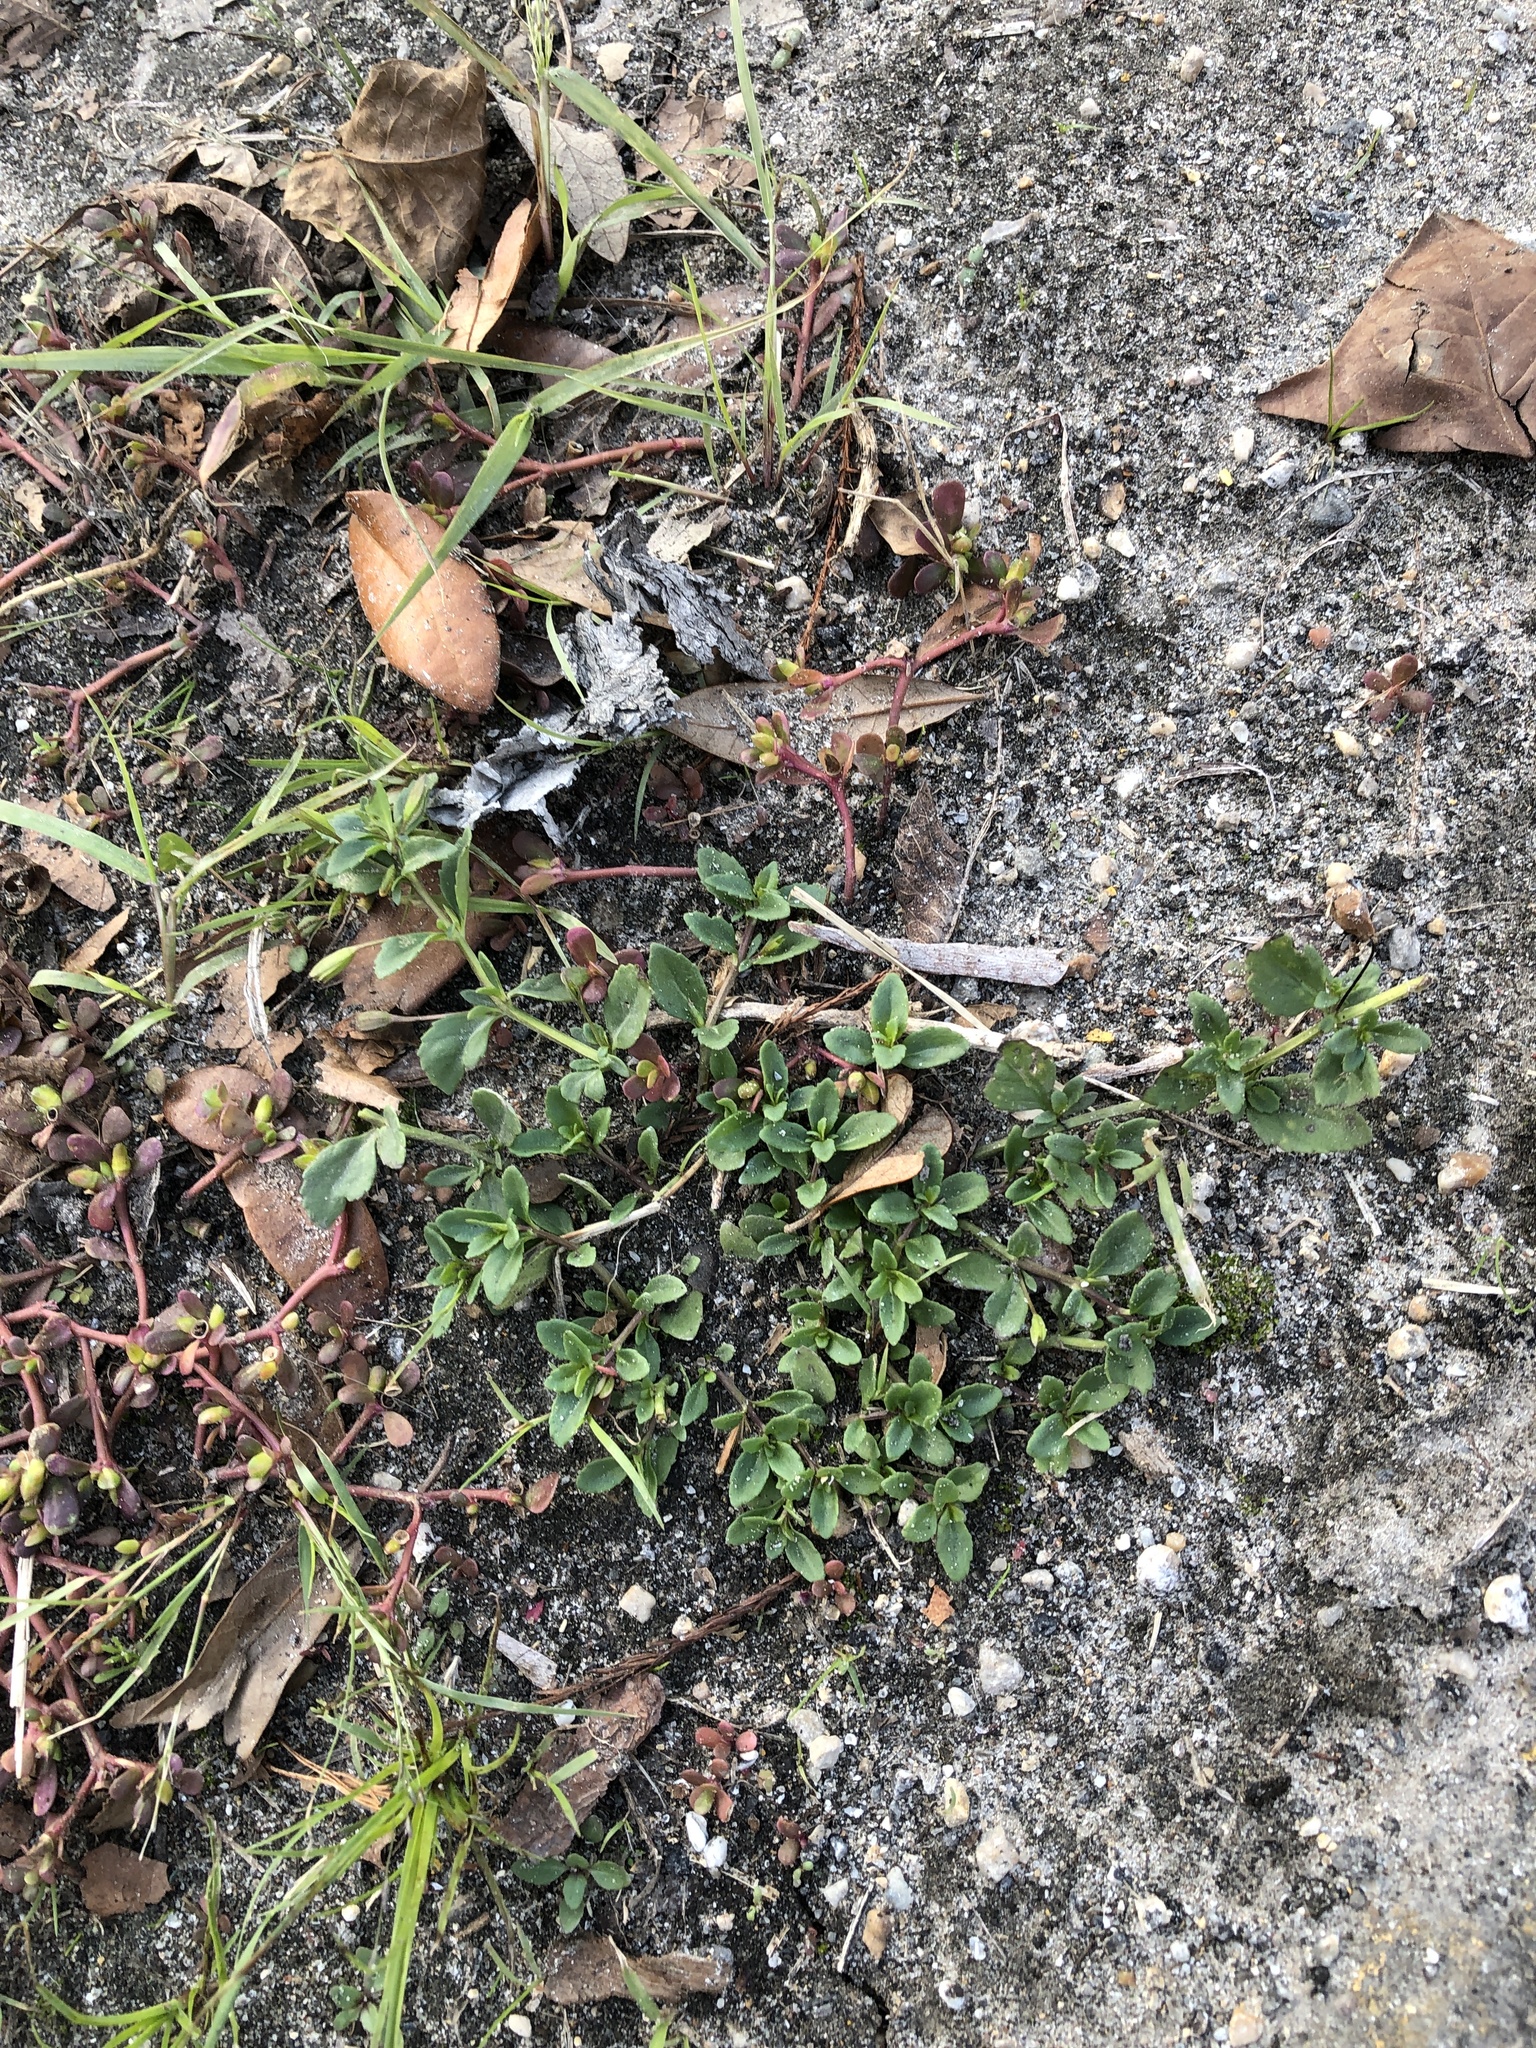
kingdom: Plantae
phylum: Tracheophyta
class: Magnoliopsida
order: Lamiales
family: Plantaginaceae
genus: Mecardonia
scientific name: Mecardonia procumbens
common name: Baby jump-up
